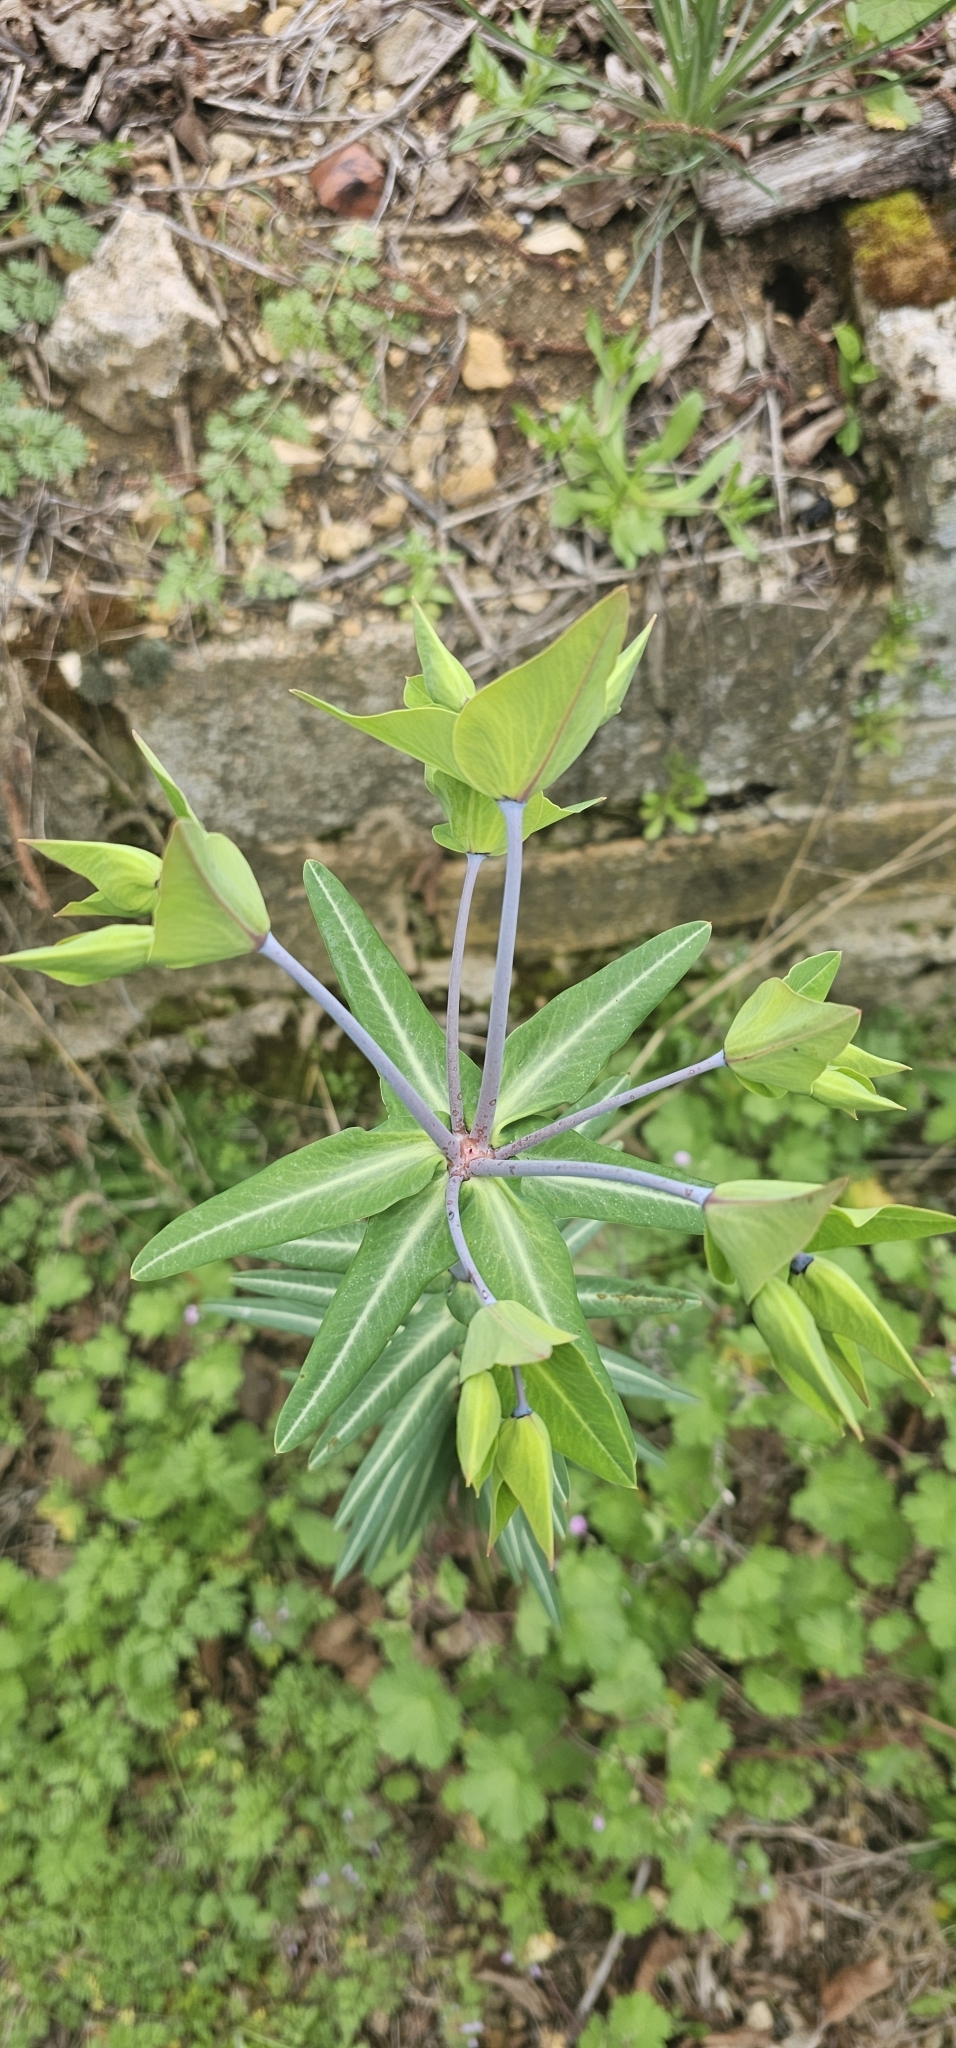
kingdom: Plantae
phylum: Tracheophyta
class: Magnoliopsida
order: Malpighiales
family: Euphorbiaceae
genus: Euphorbia
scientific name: Euphorbia lathyris
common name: Caper spurge
